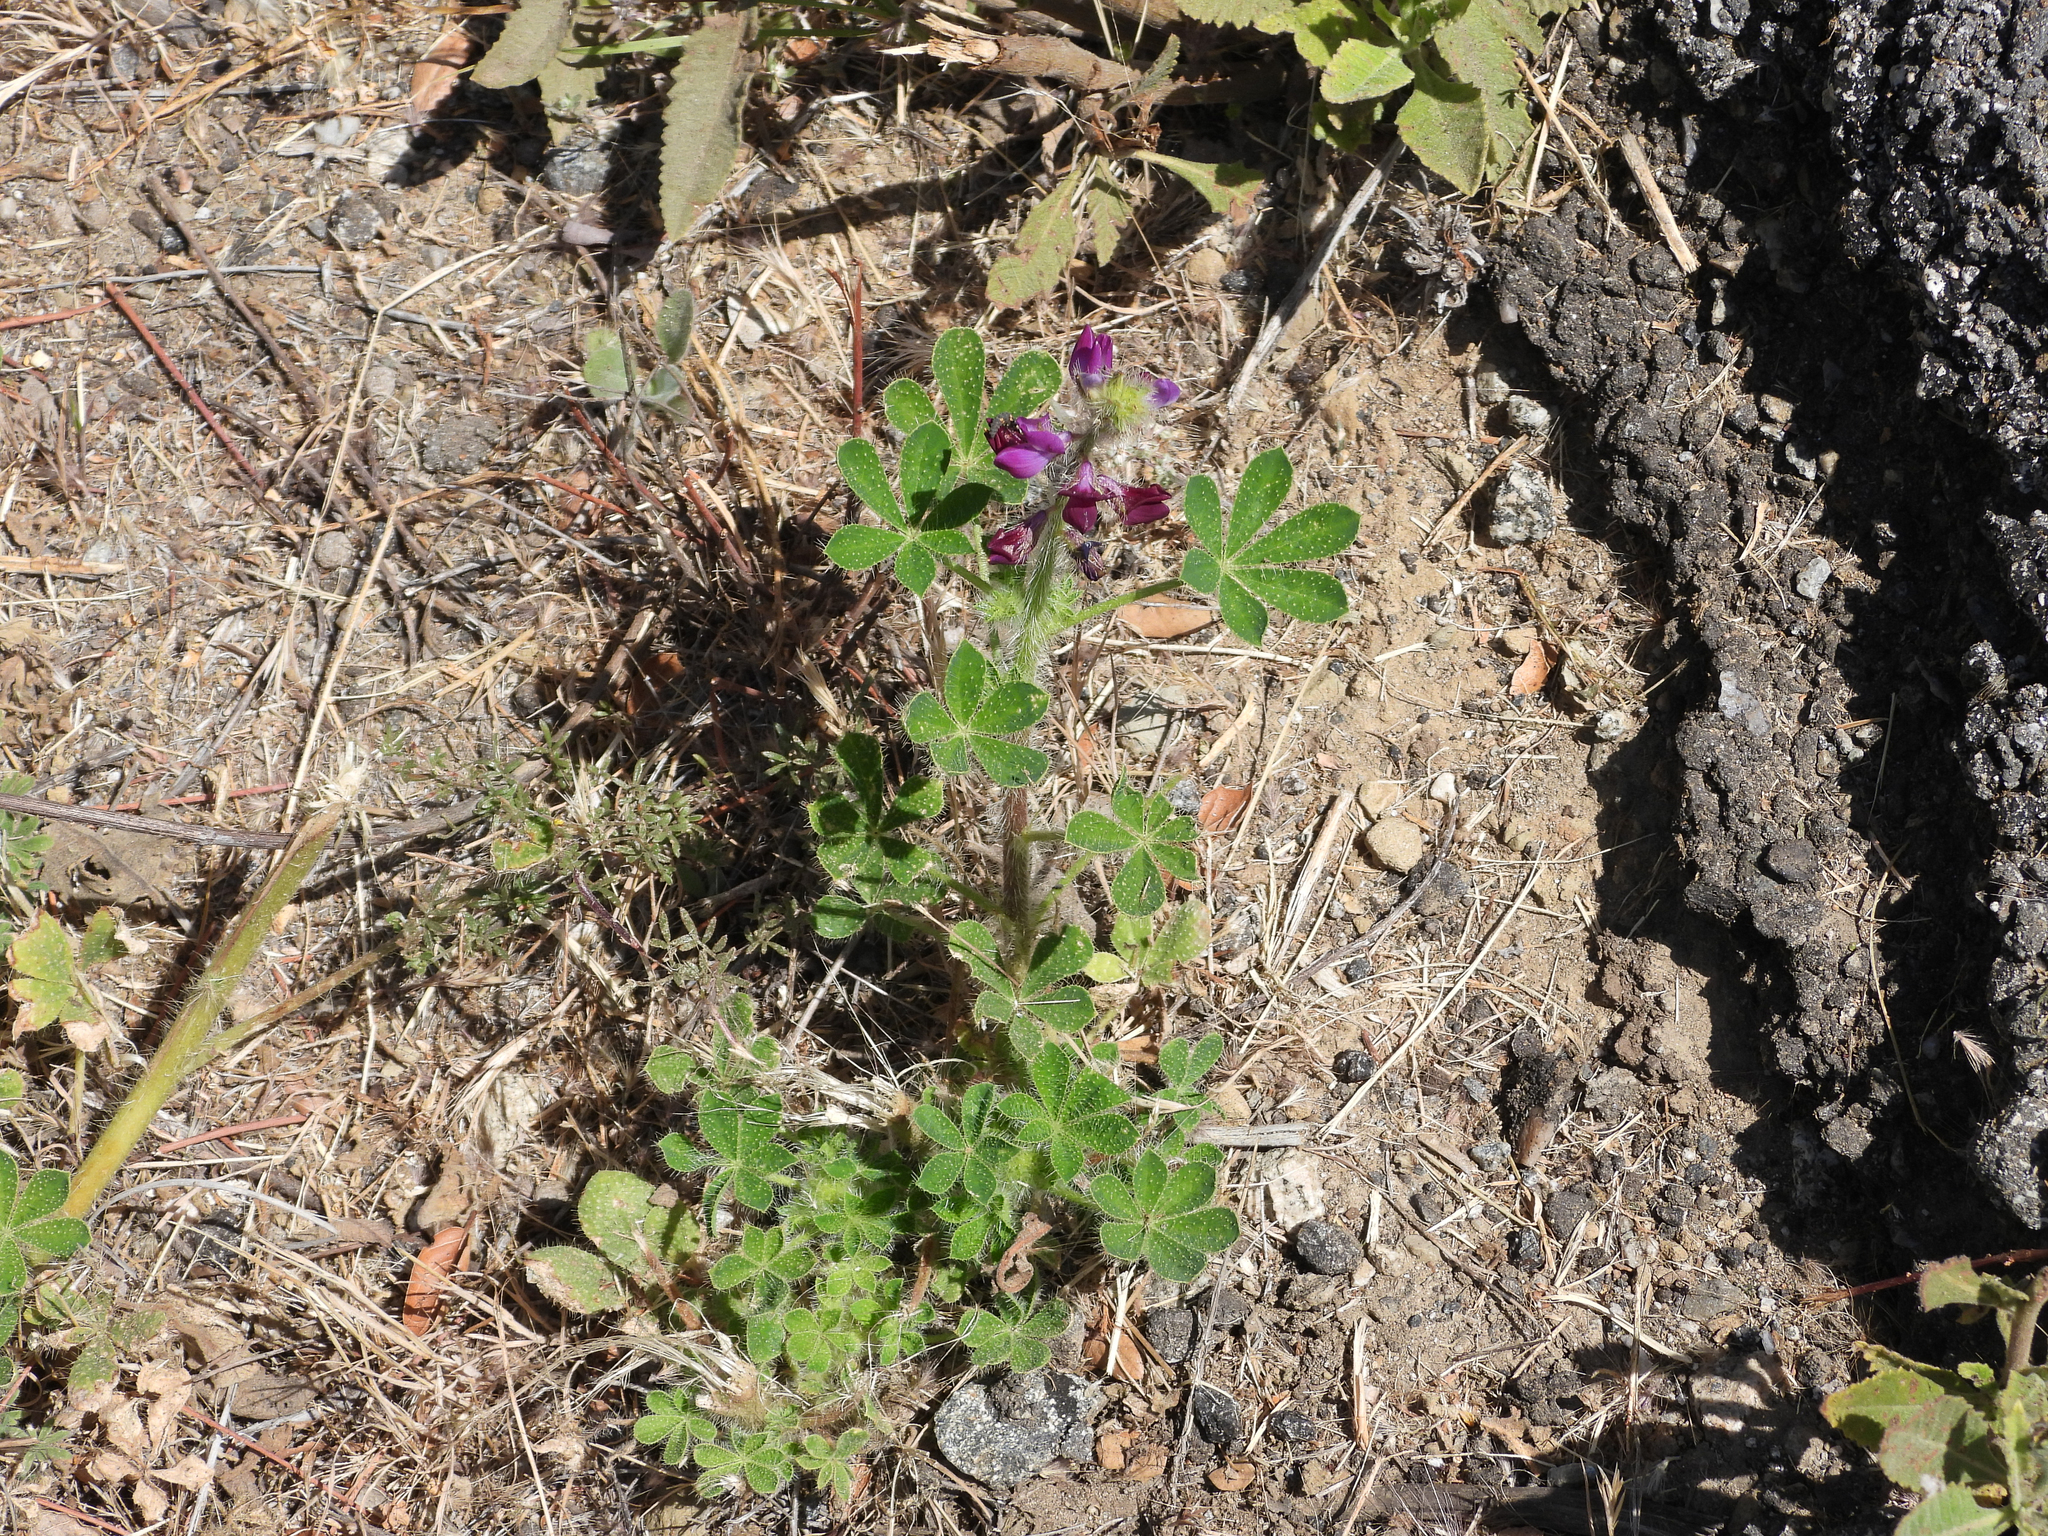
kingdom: Plantae
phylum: Tracheophyta
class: Magnoliopsida
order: Fabales
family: Fabaceae
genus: Lupinus
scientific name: Lupinus hirsutissimus
